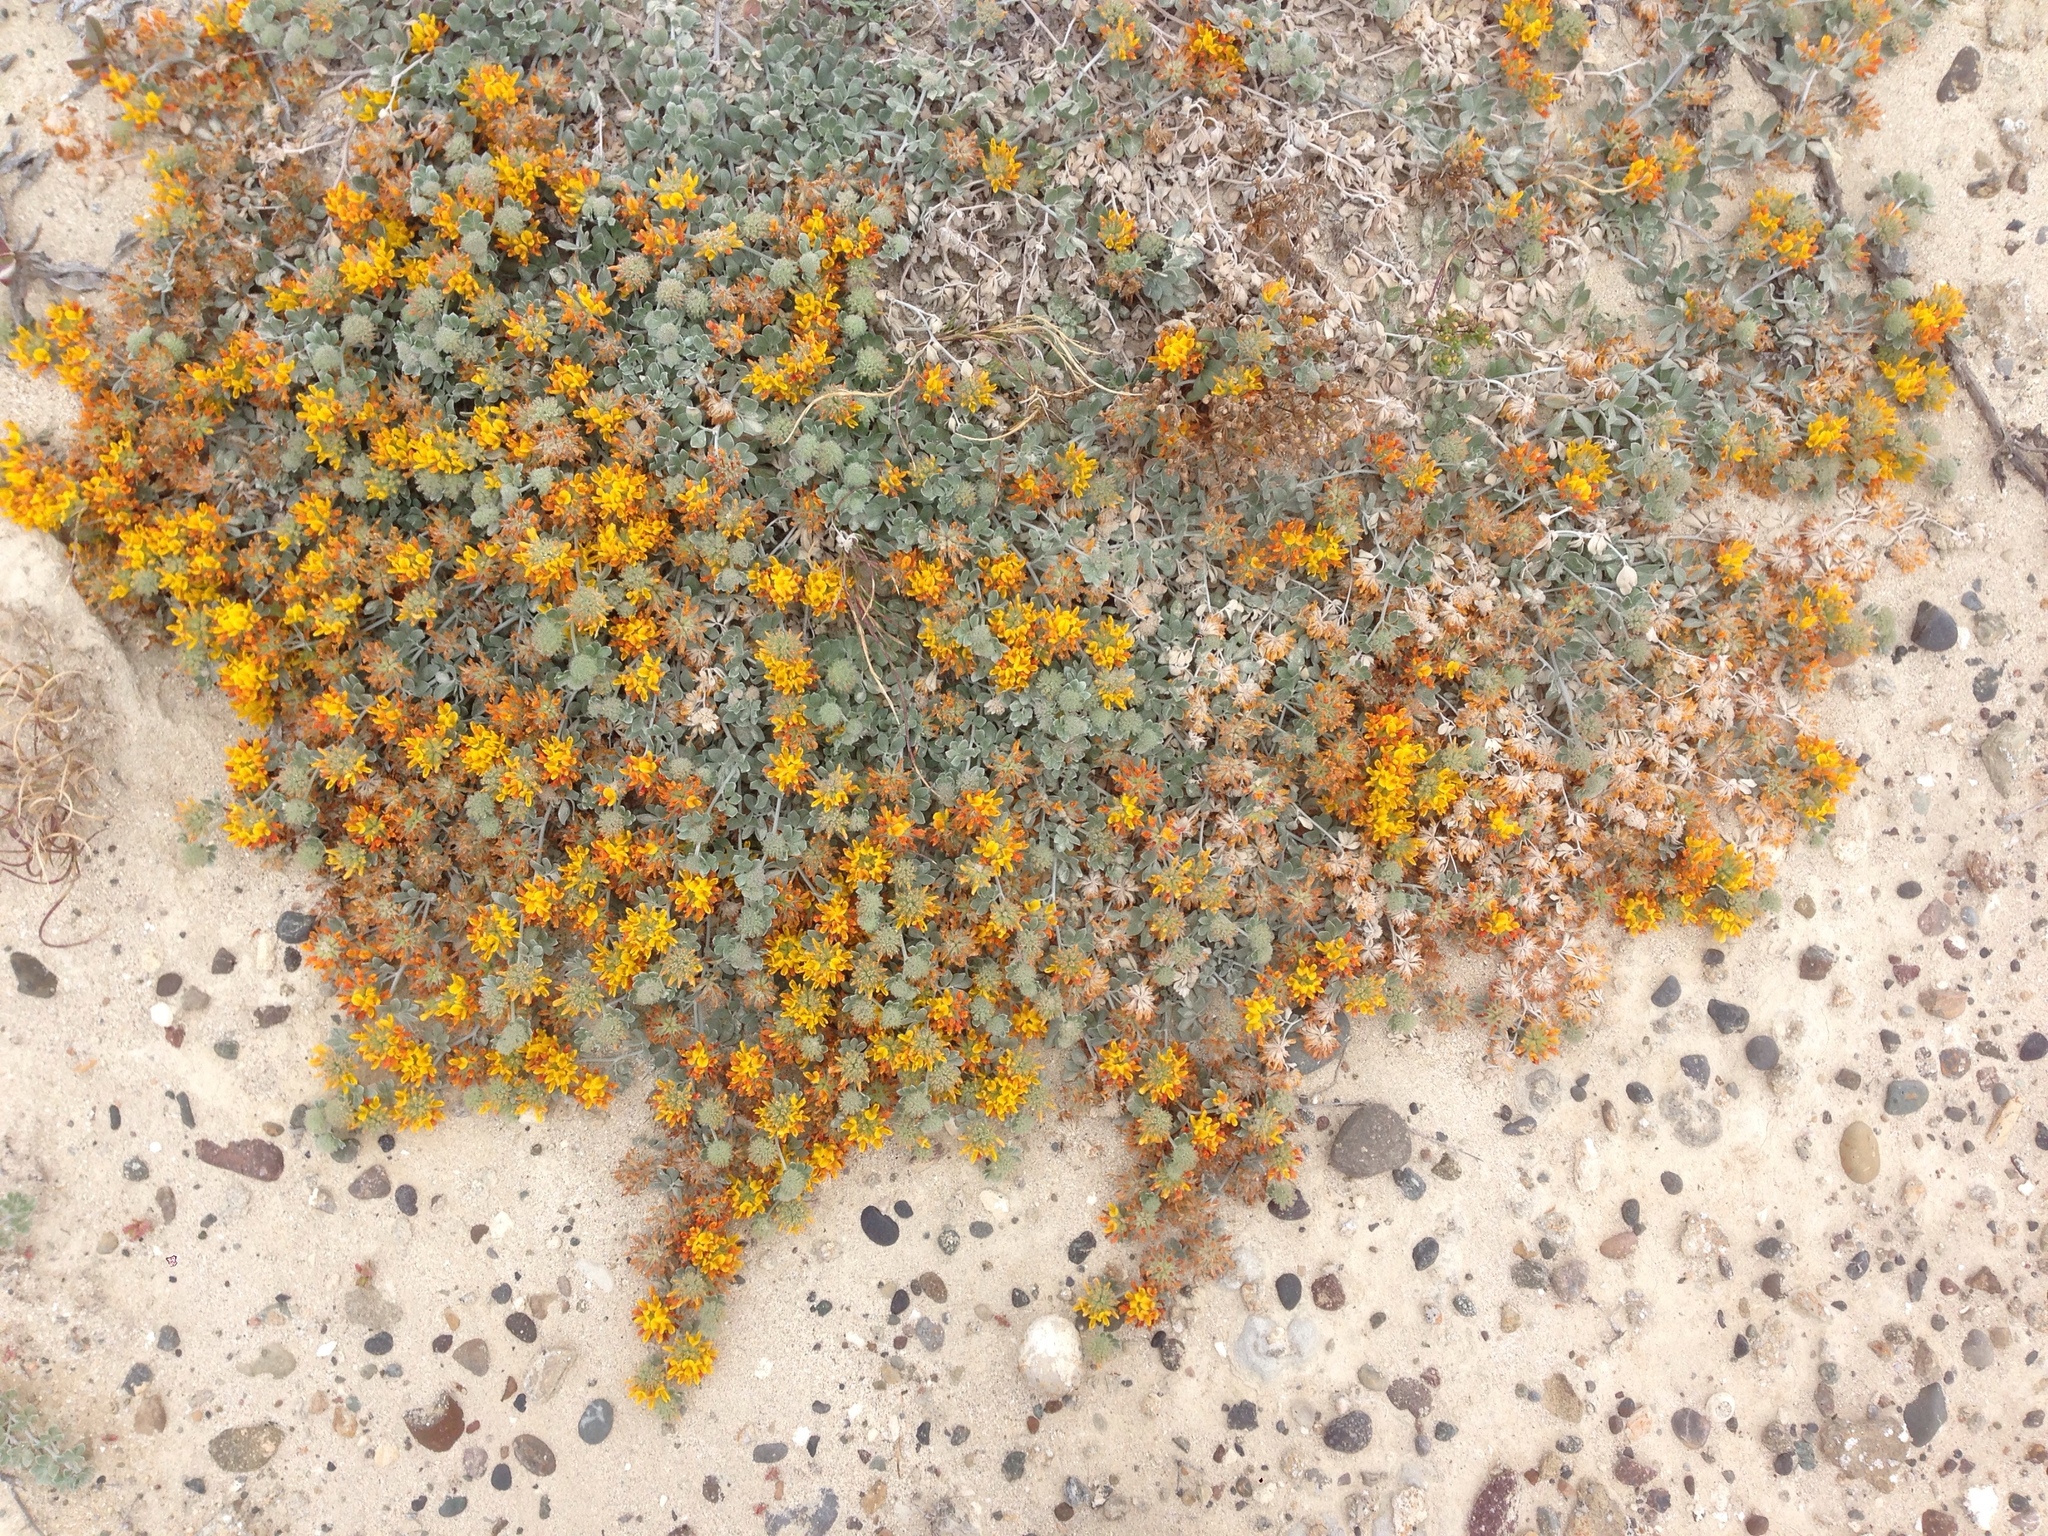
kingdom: Plantae
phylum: Tracheophyta
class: Magnoliopsida
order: Fabales
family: Fabaceae
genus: Acmispon
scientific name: Acmispon argophyllus
